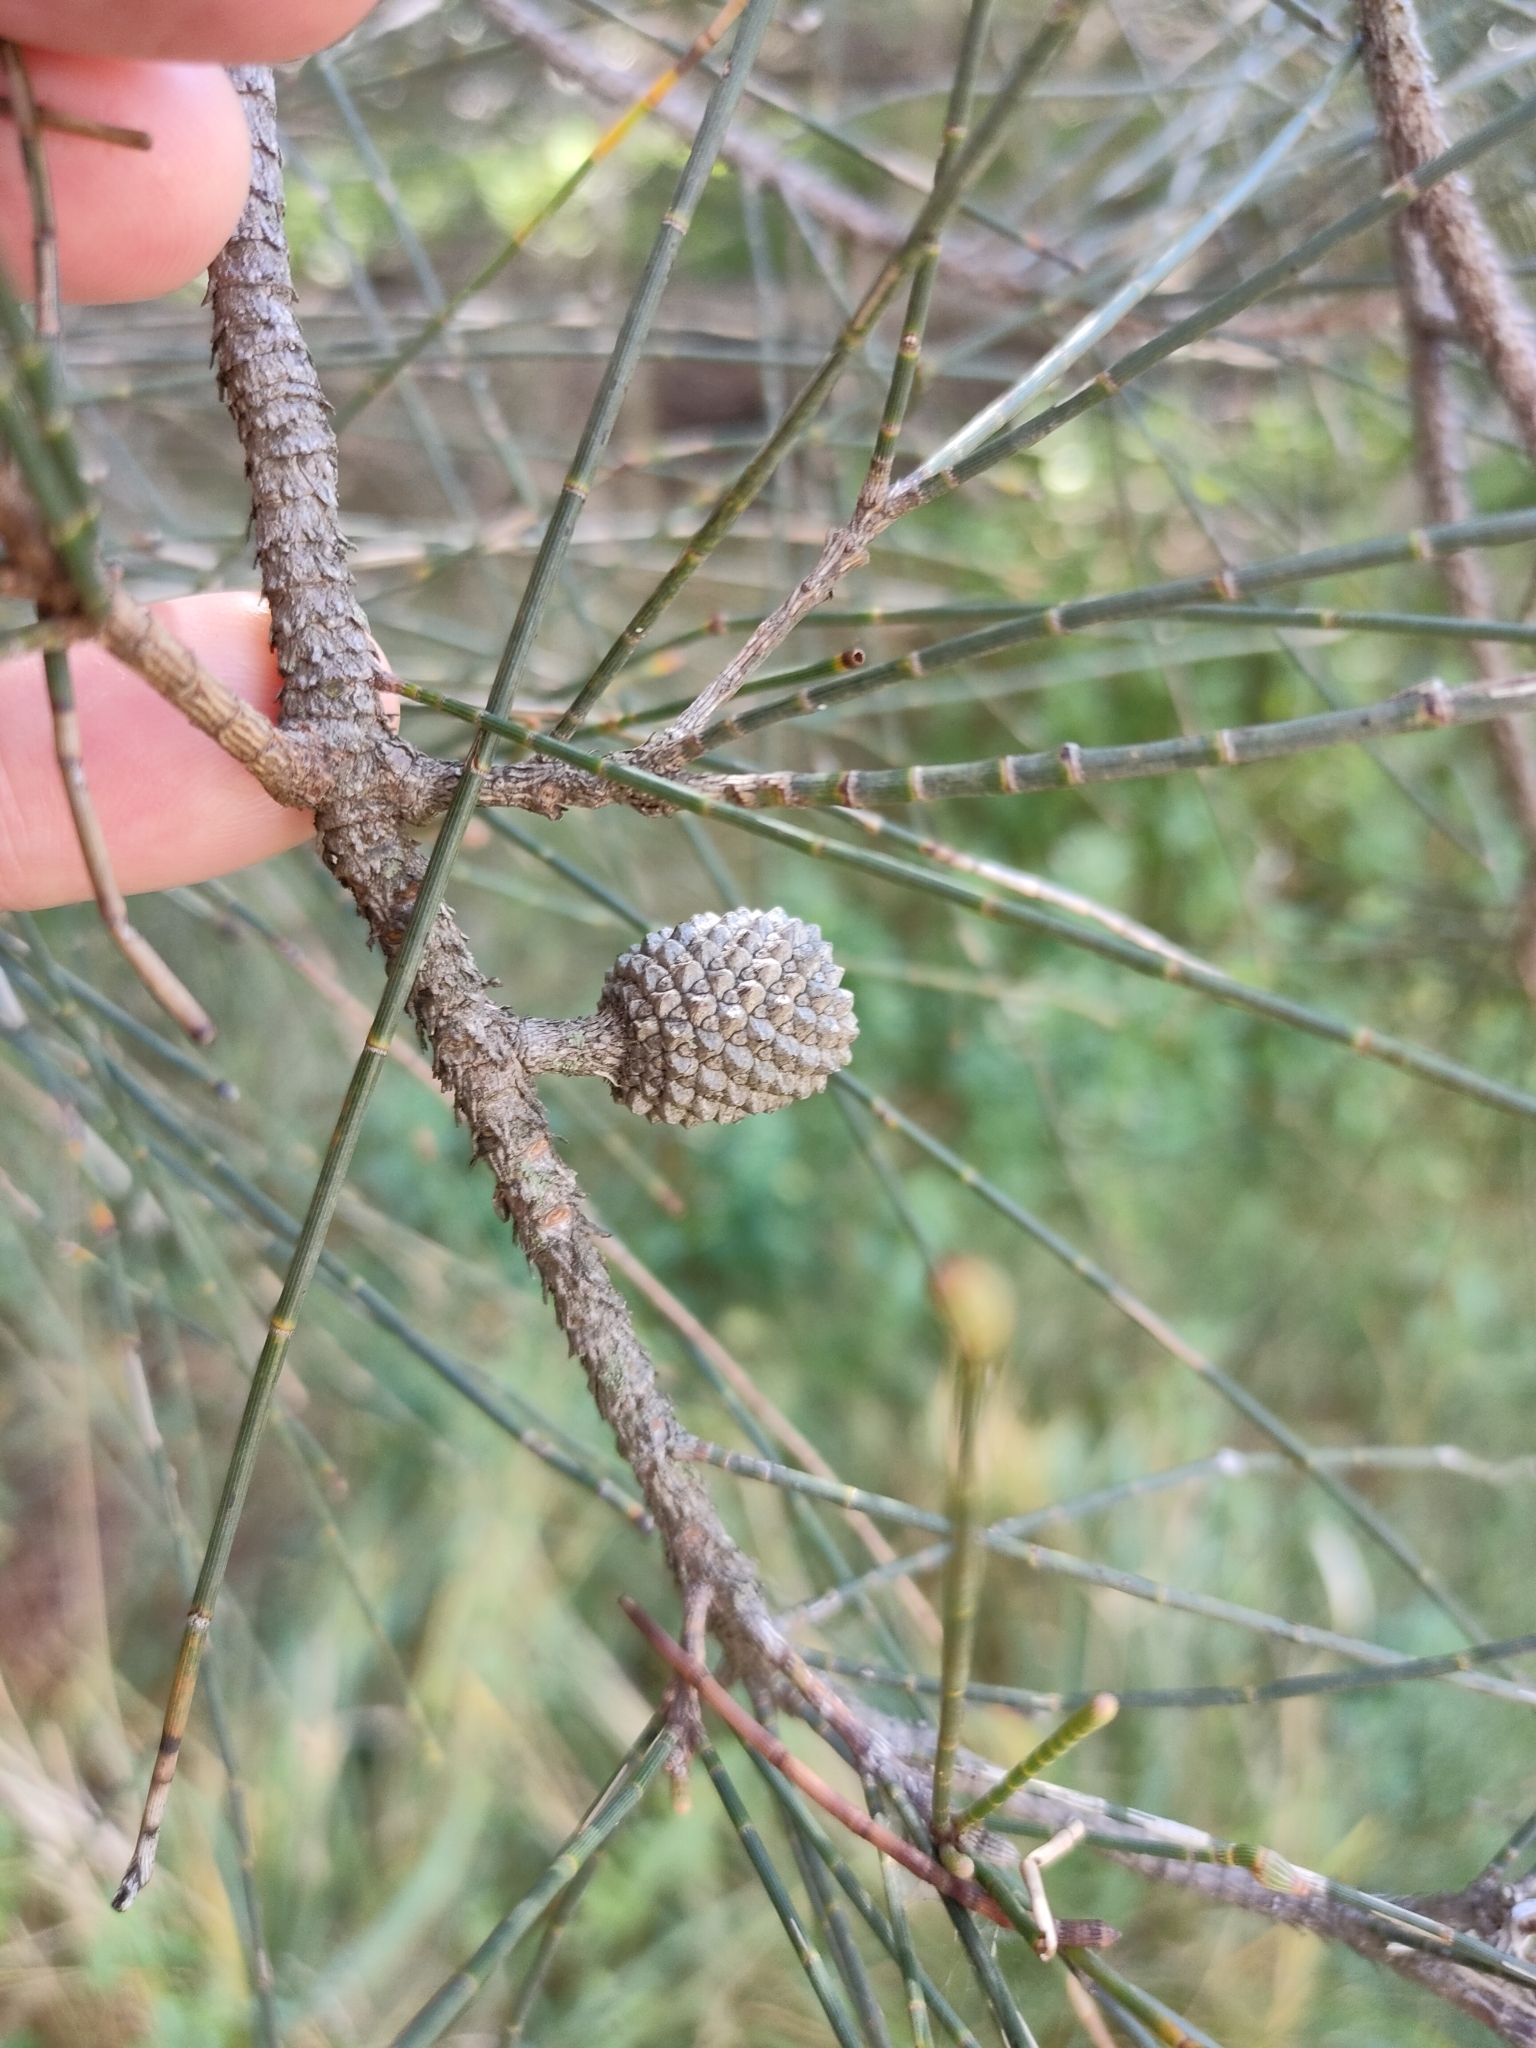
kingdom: Plantae
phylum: Tracheophyta
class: Magnoliopsida
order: Fagales
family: Casuarinaceae
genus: Casuarina
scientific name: Casuarina glauca
